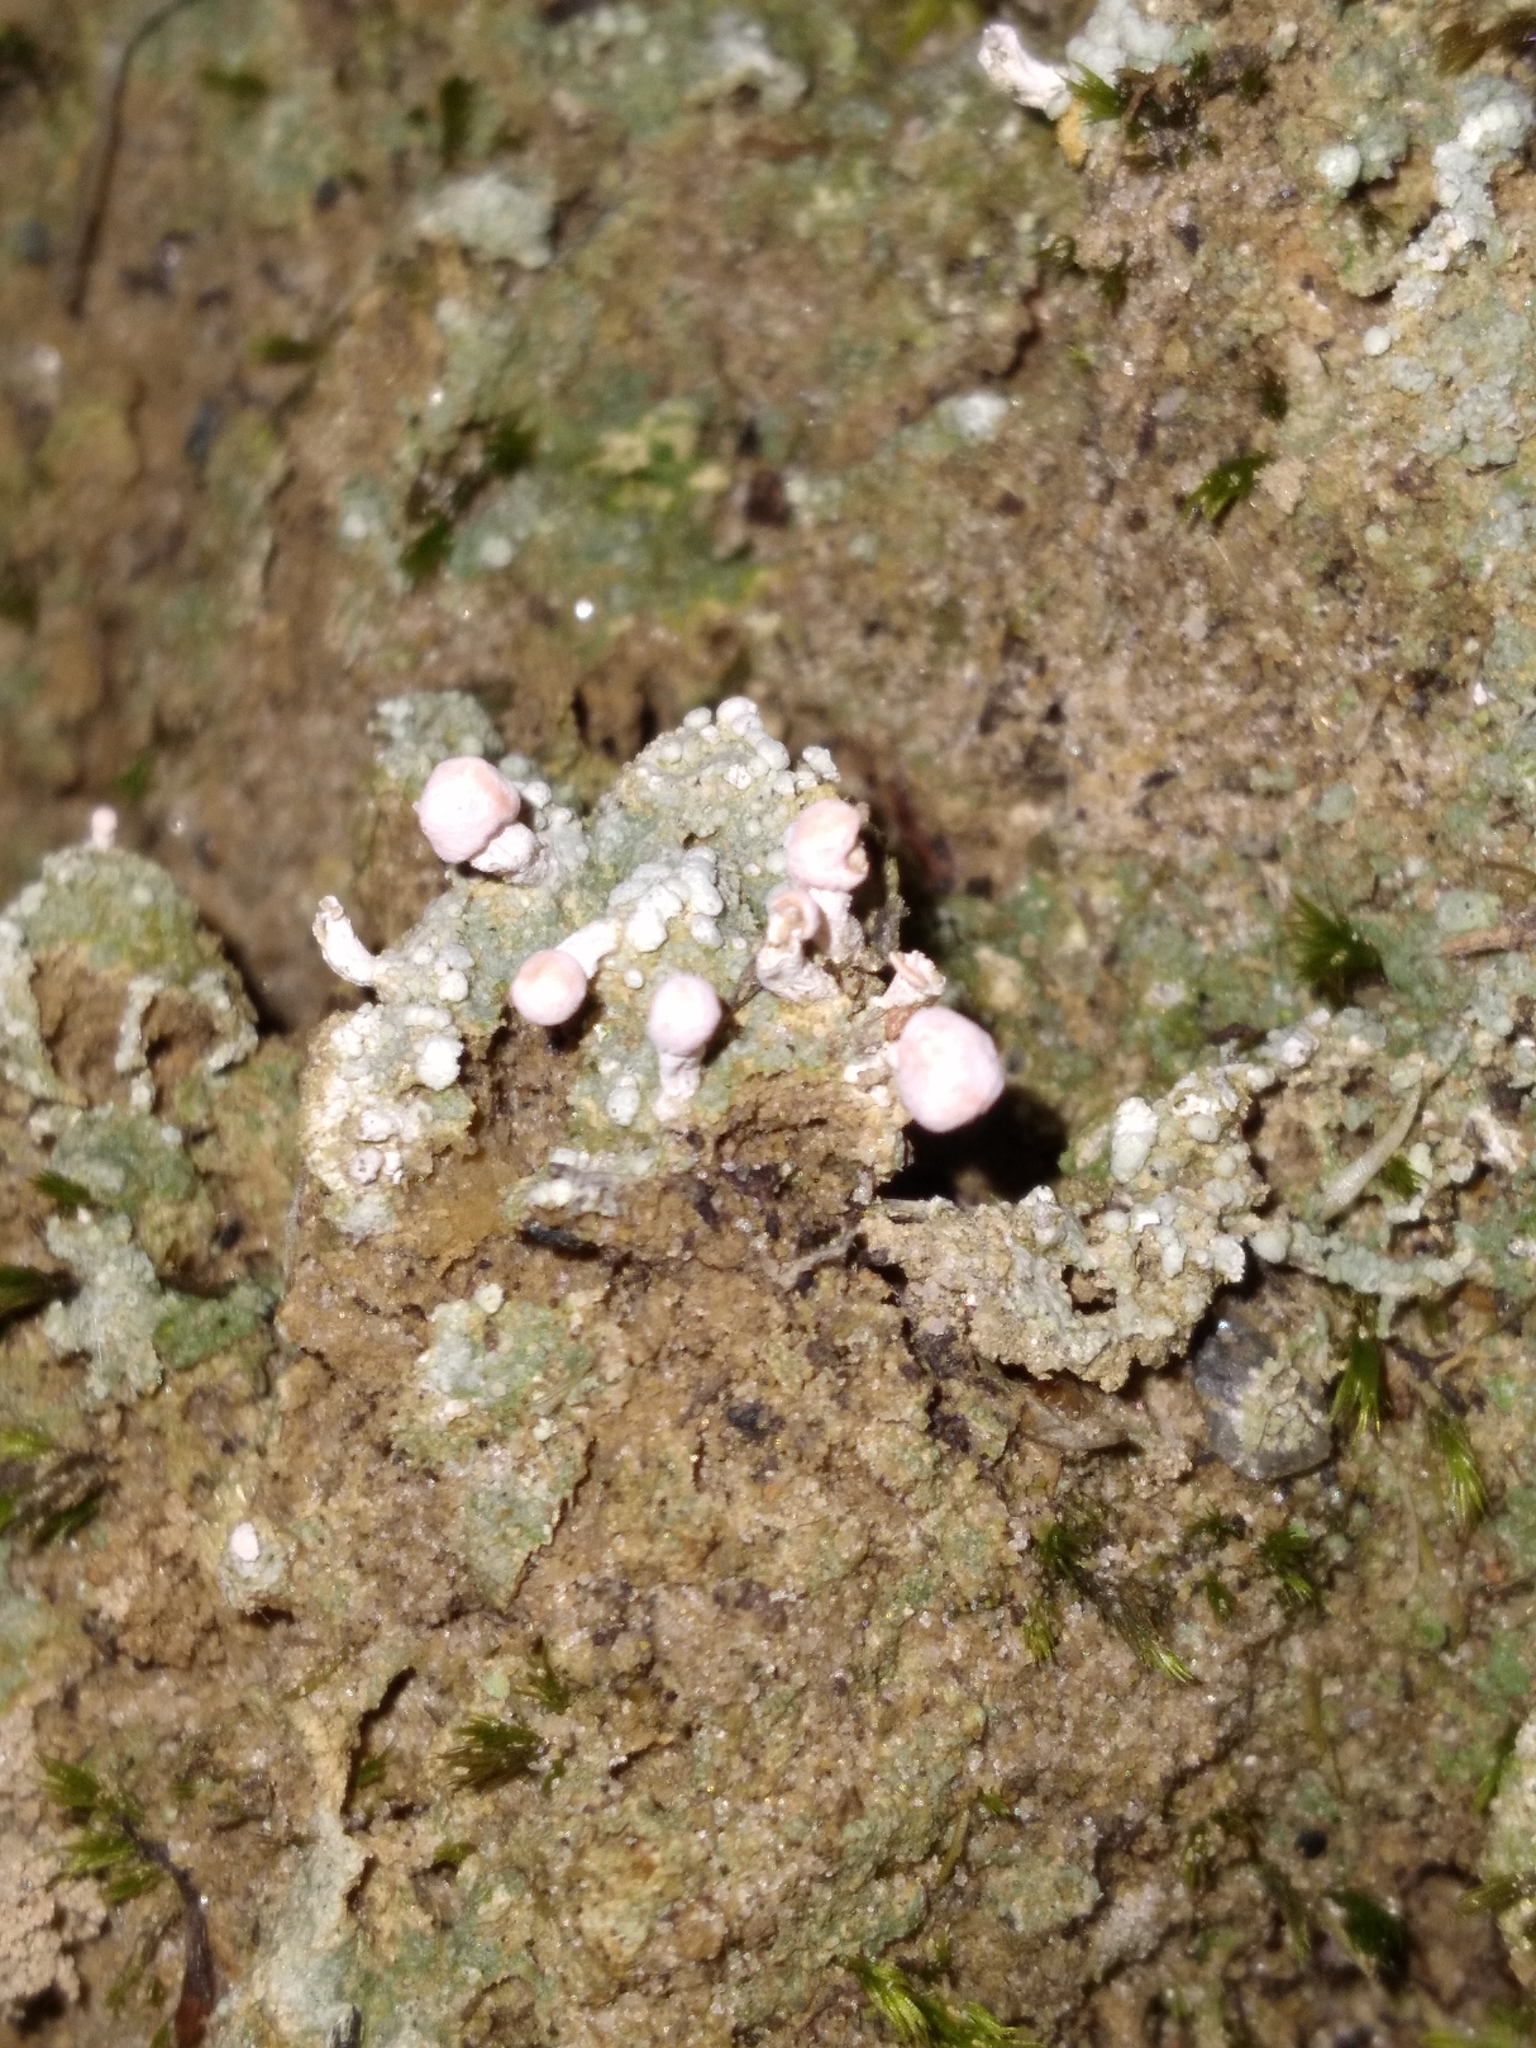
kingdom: Fungi
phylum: Ascomycota
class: Lecanoromycetes
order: Pertusariales
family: Icmadophilaceae
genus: Dibaeis
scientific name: Dibaeis baeomyces
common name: Pink earth lichen
